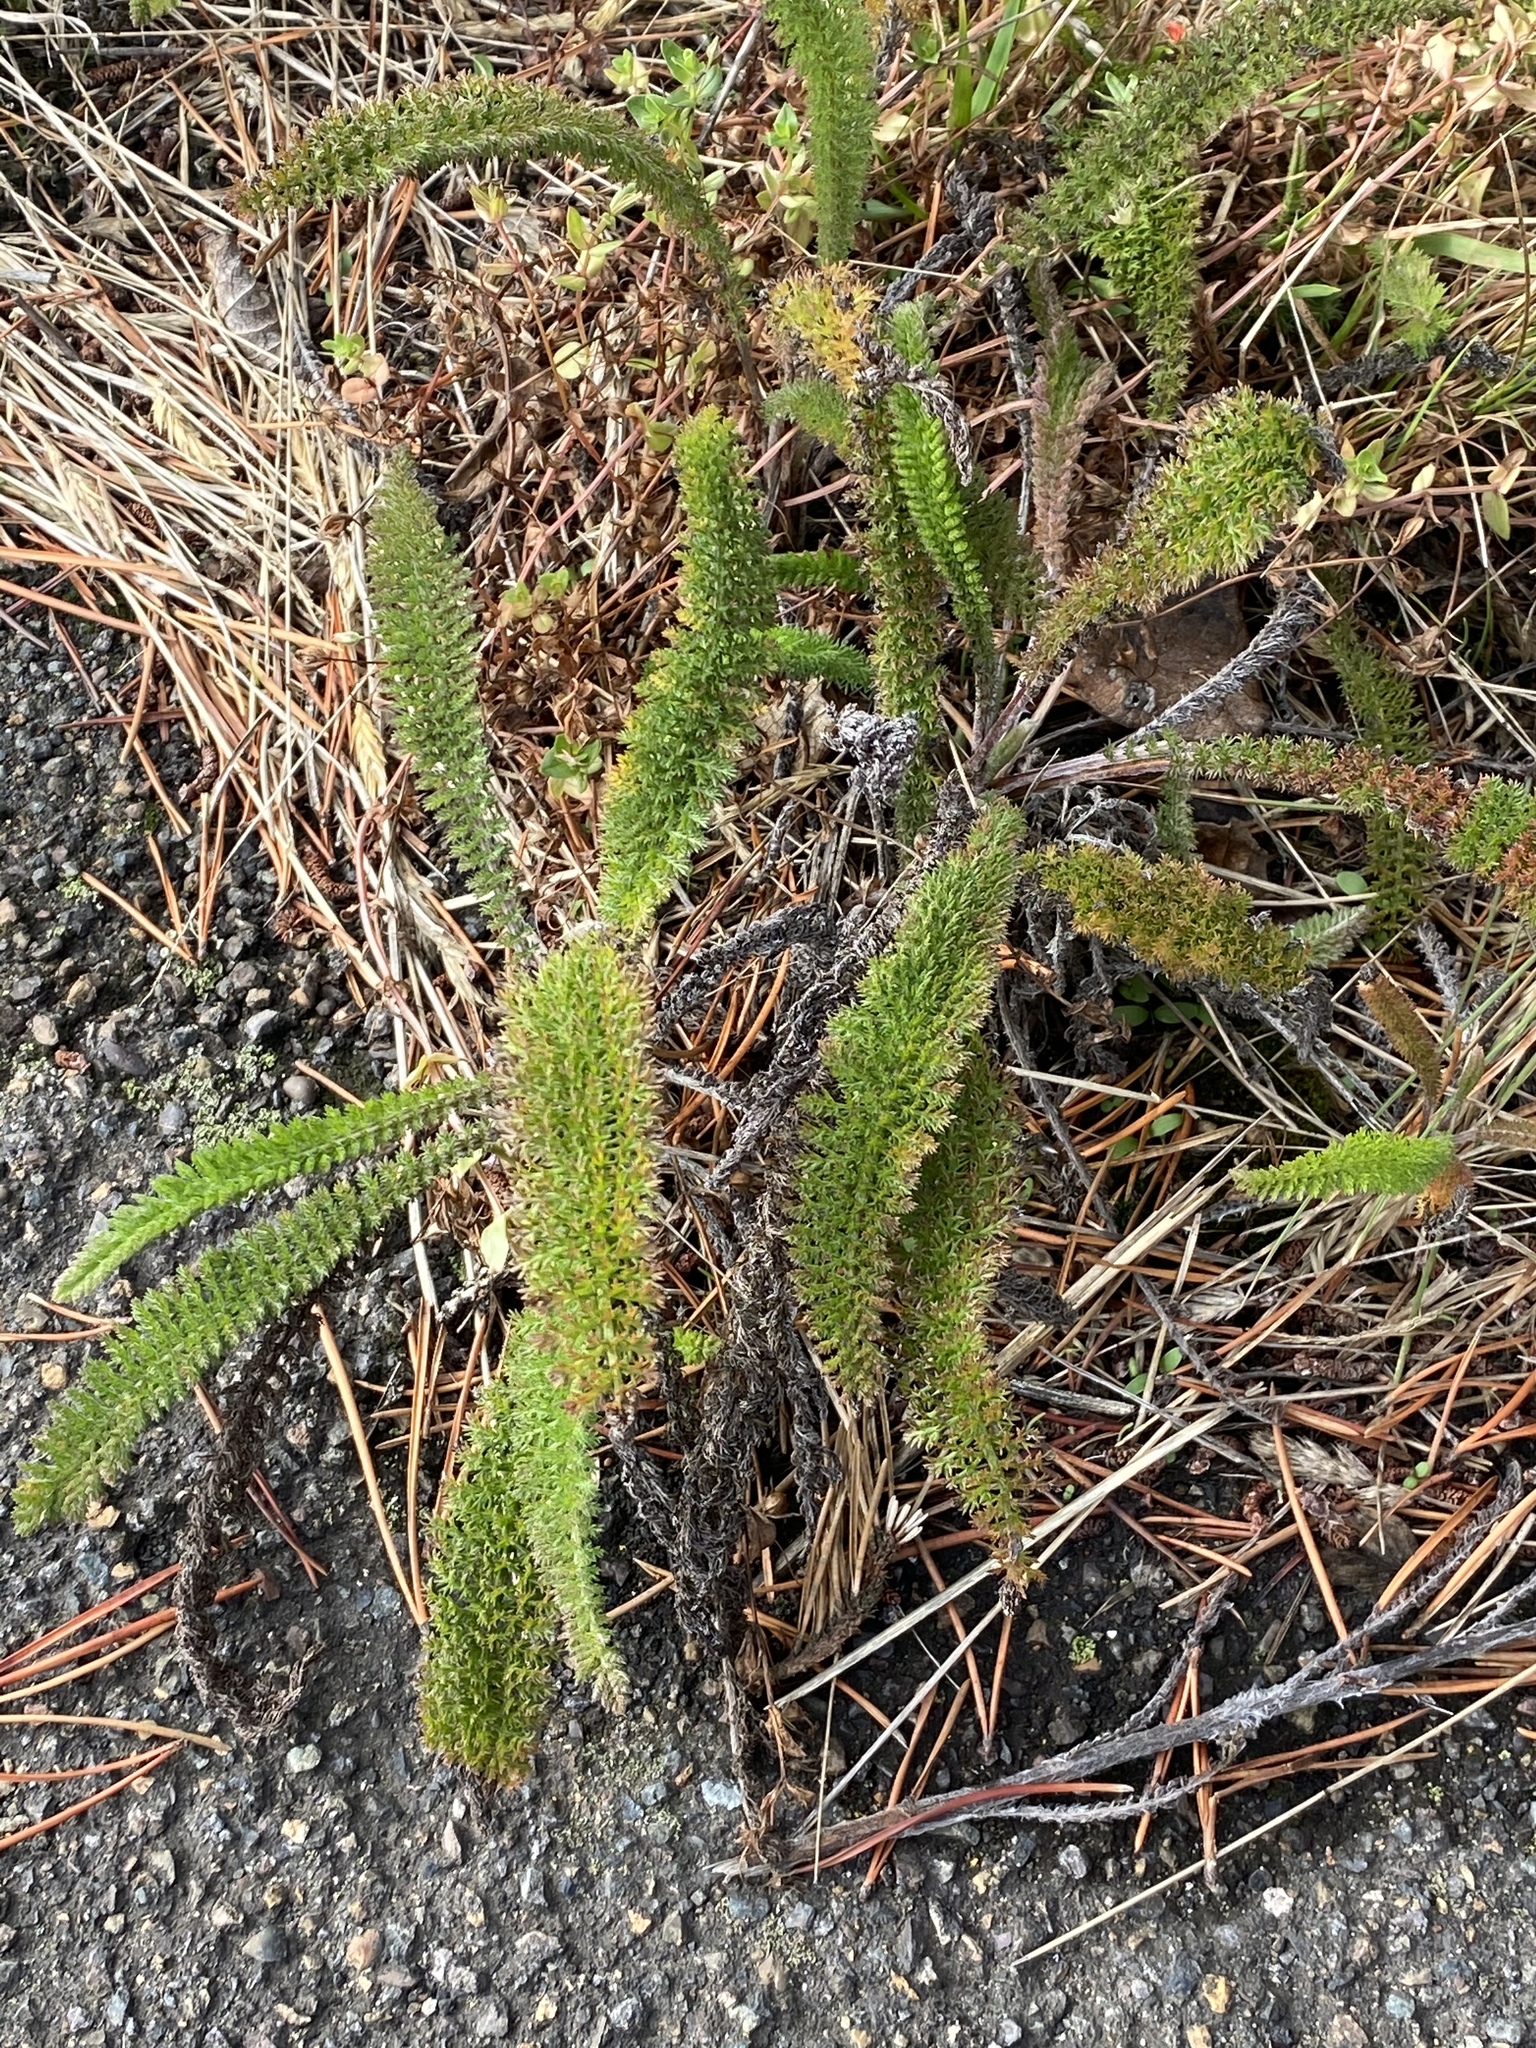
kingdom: Plantae
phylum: Tracheophyta
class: Magnoliopsida
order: Asterales
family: Asteraceae
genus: Achillea
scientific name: Achillea millefolium
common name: Yarrow
